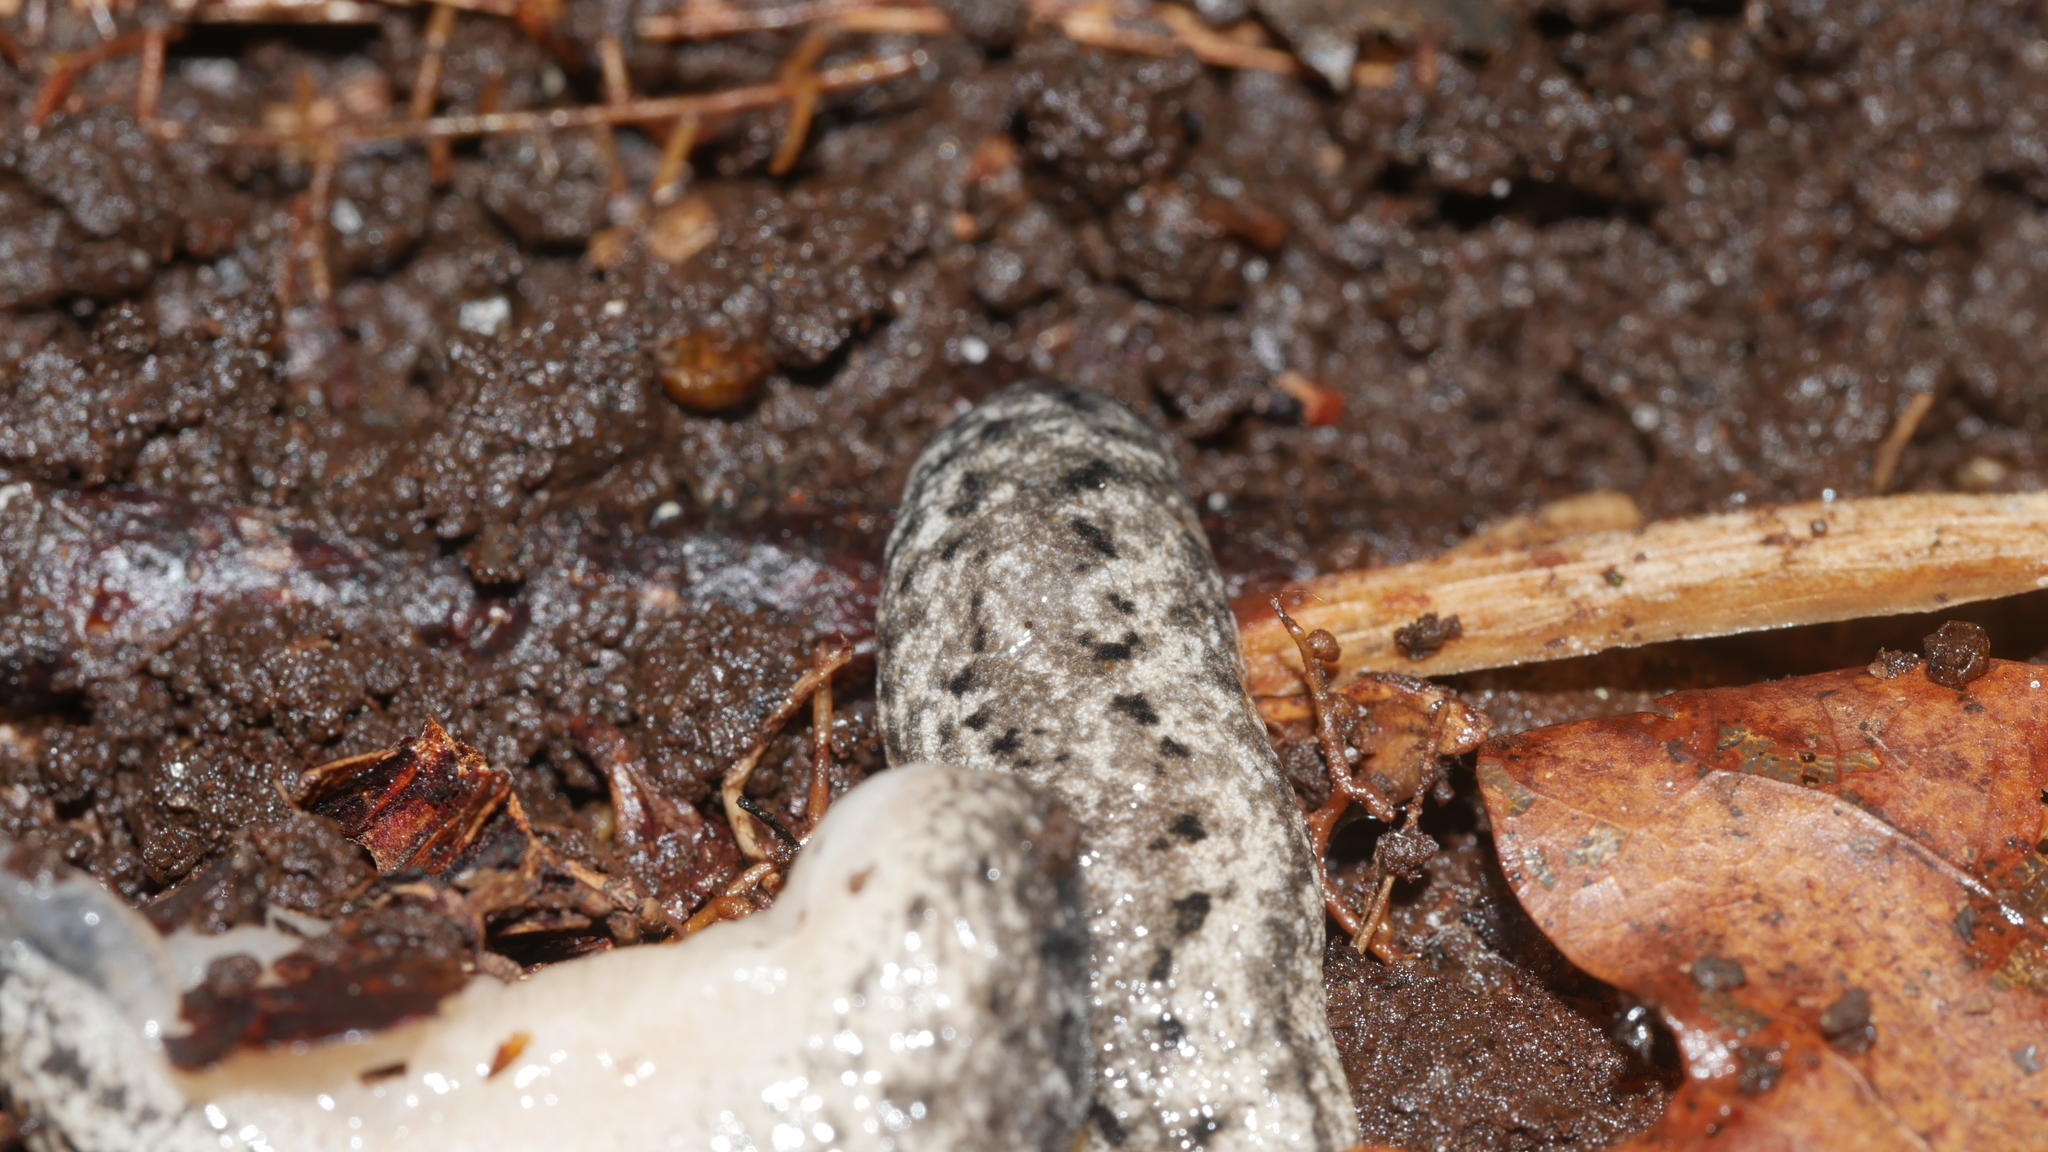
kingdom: Animalia
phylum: Mollusca
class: Gastropoda
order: Stylommatophora
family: Philomycidae
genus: Philomycus
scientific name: Philomycus carolinianus
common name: Carolina mantleslug
